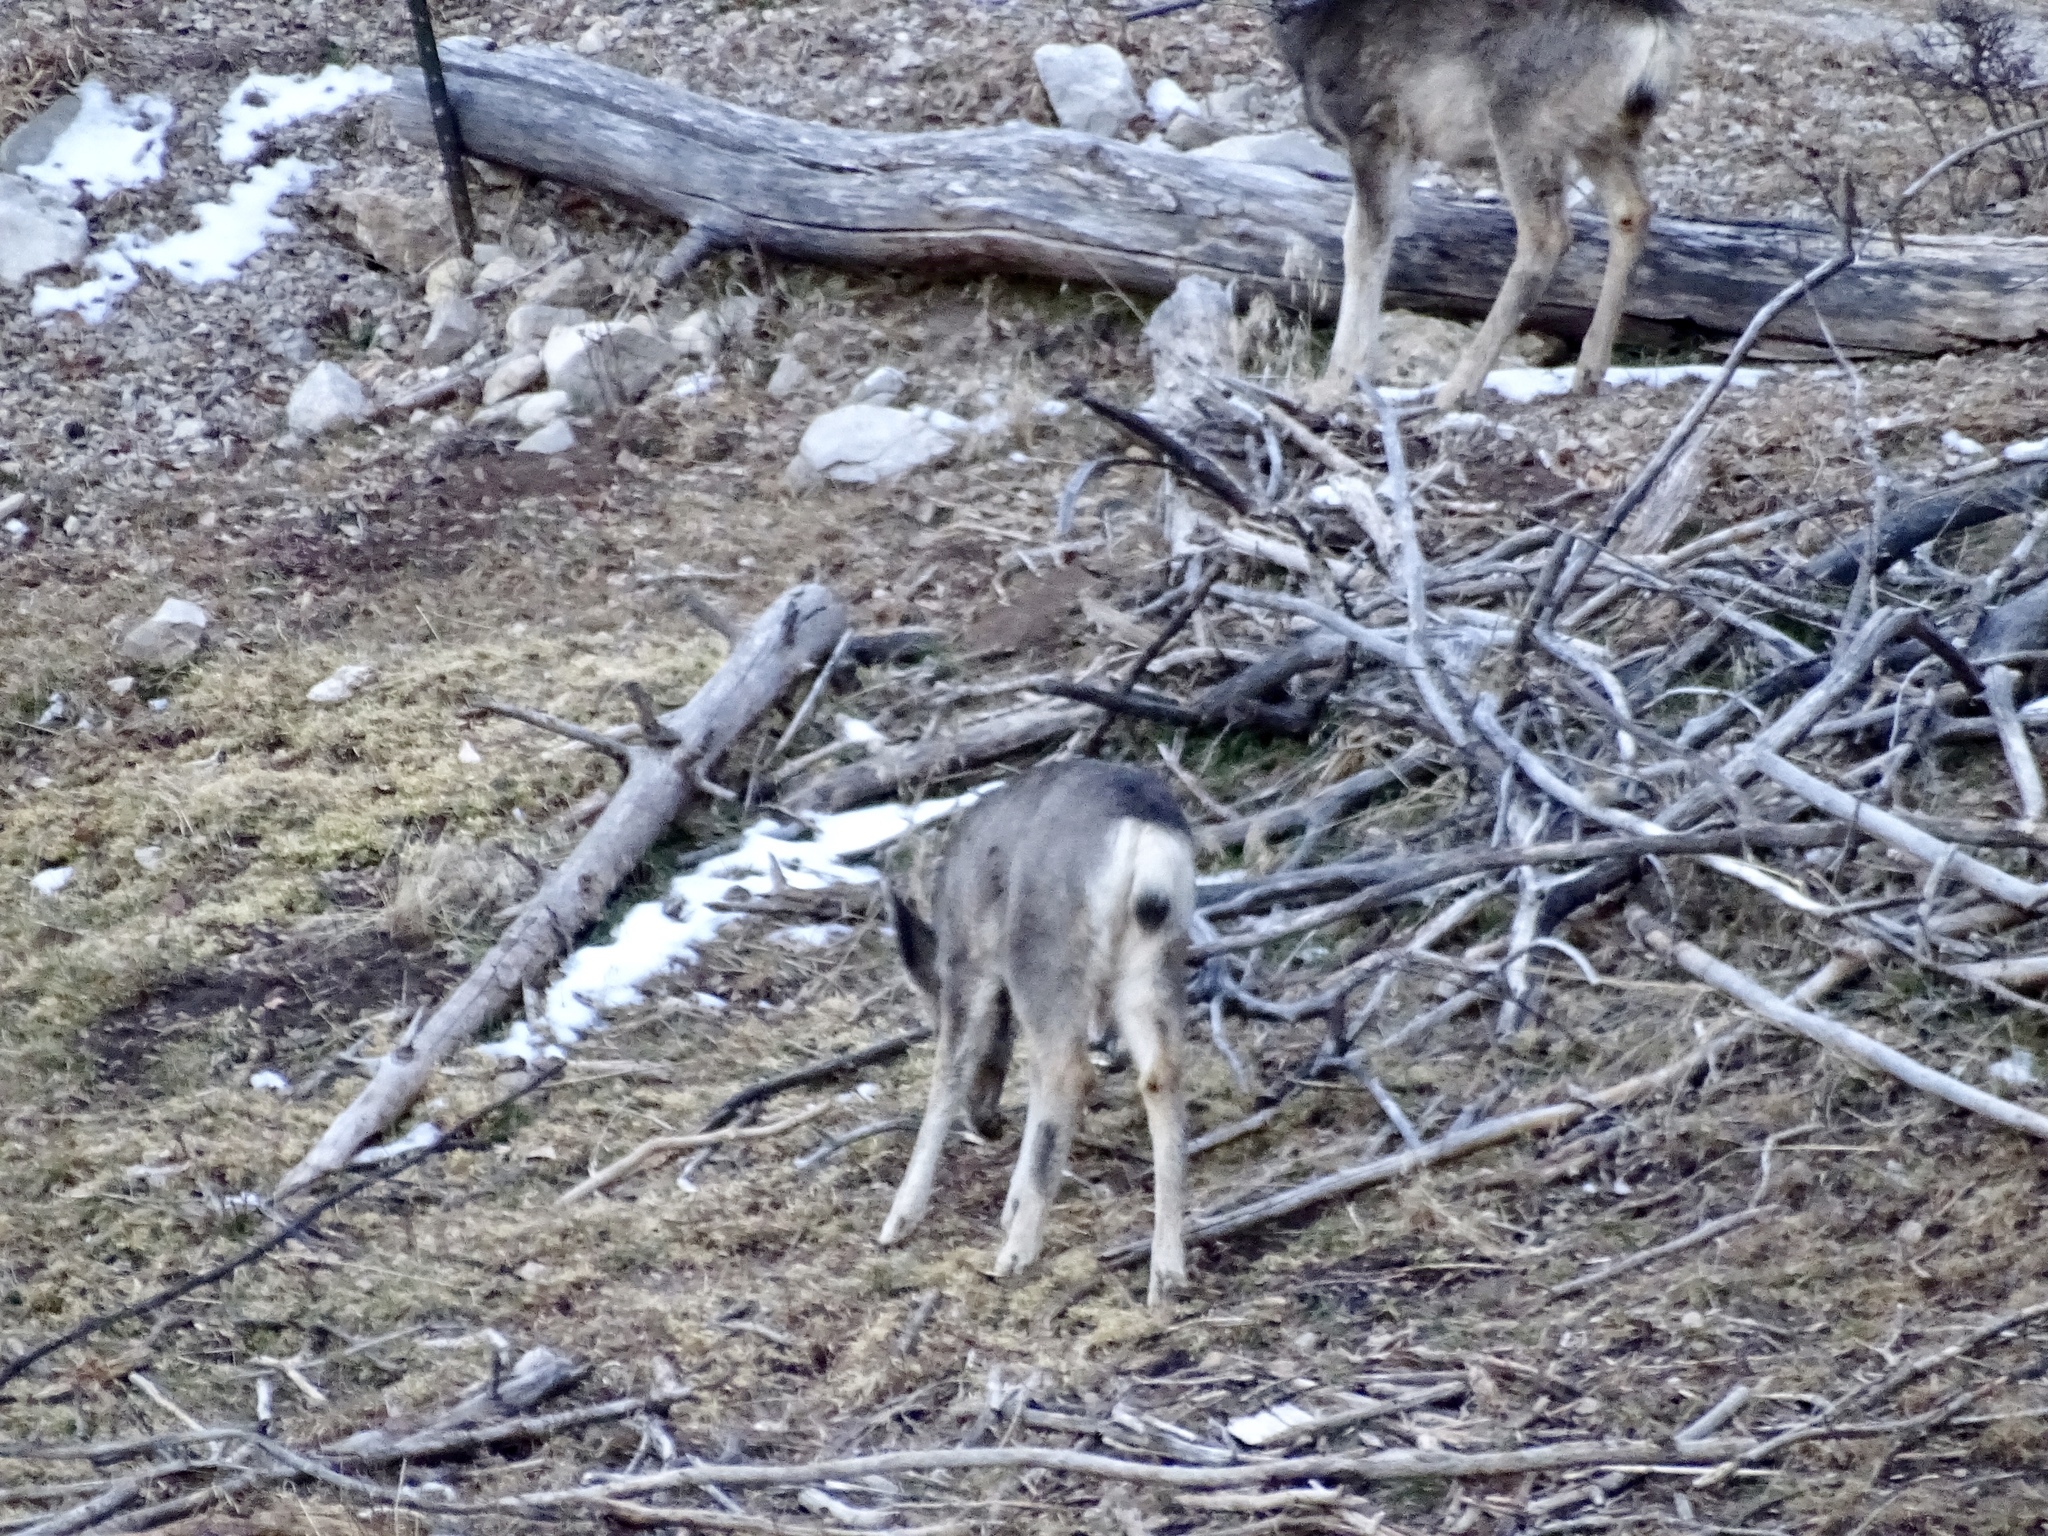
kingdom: Animalia
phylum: Chordata
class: Mammalia
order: Artiodactyla
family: Cervidae
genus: Odocoileus
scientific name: Odocoileus hemionus
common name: Mule deer
